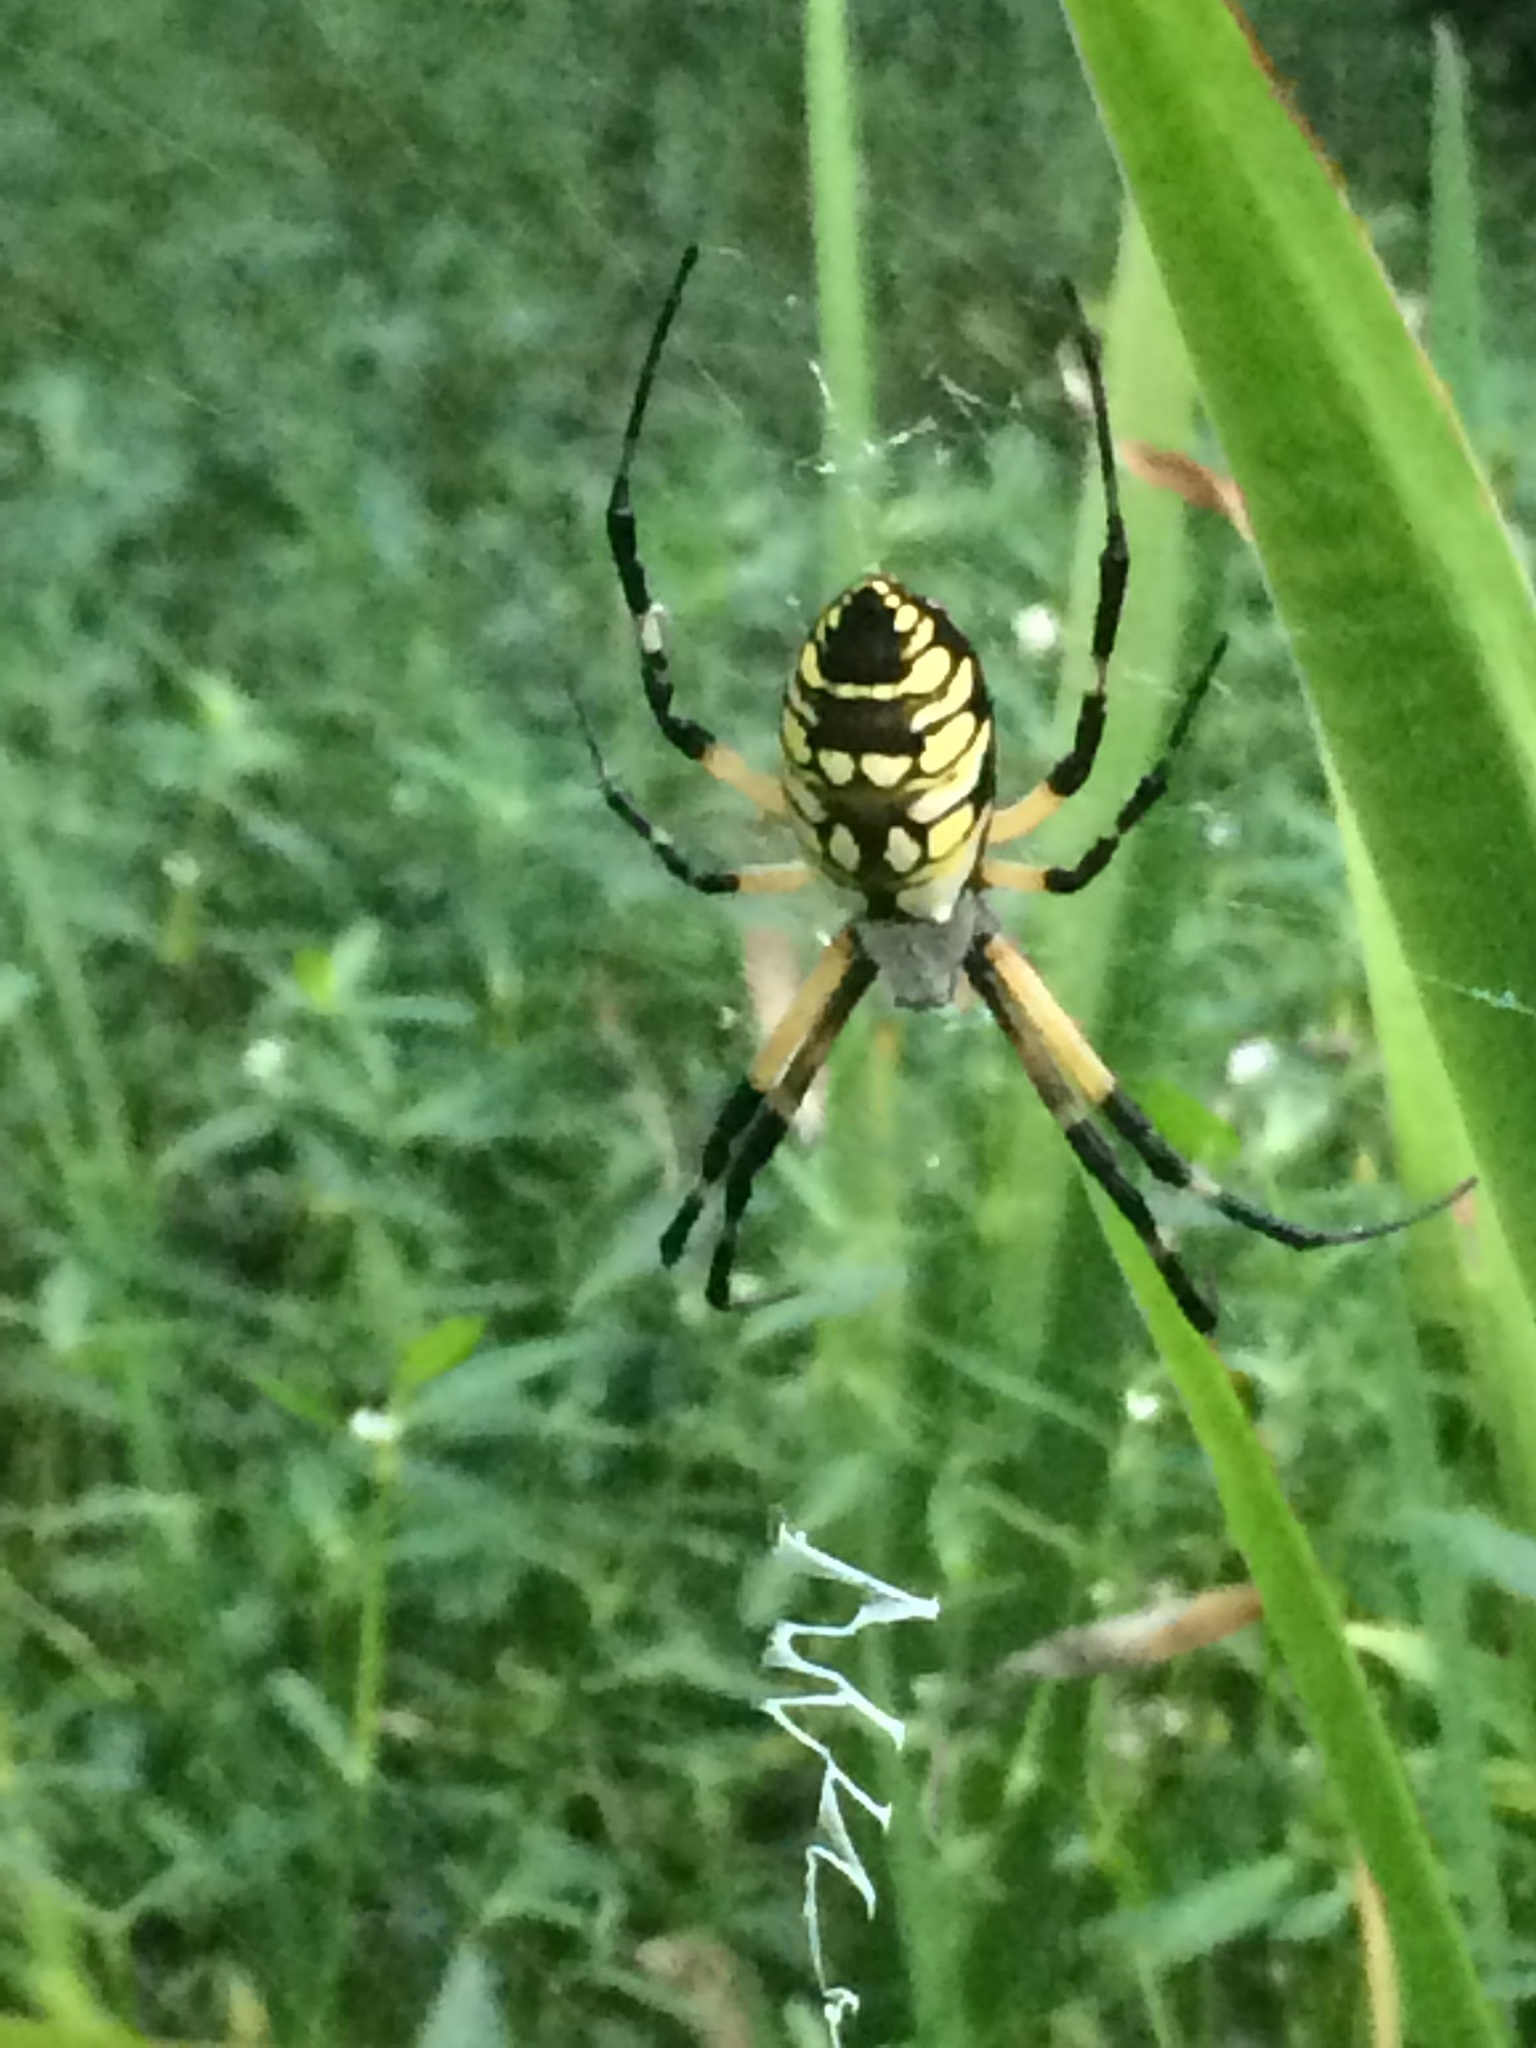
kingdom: Animalia
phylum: Arthropoda
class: Arachnida
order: Araneae
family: Araneidae
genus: Argiope
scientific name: Argiope aurantia
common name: Orb weavers
